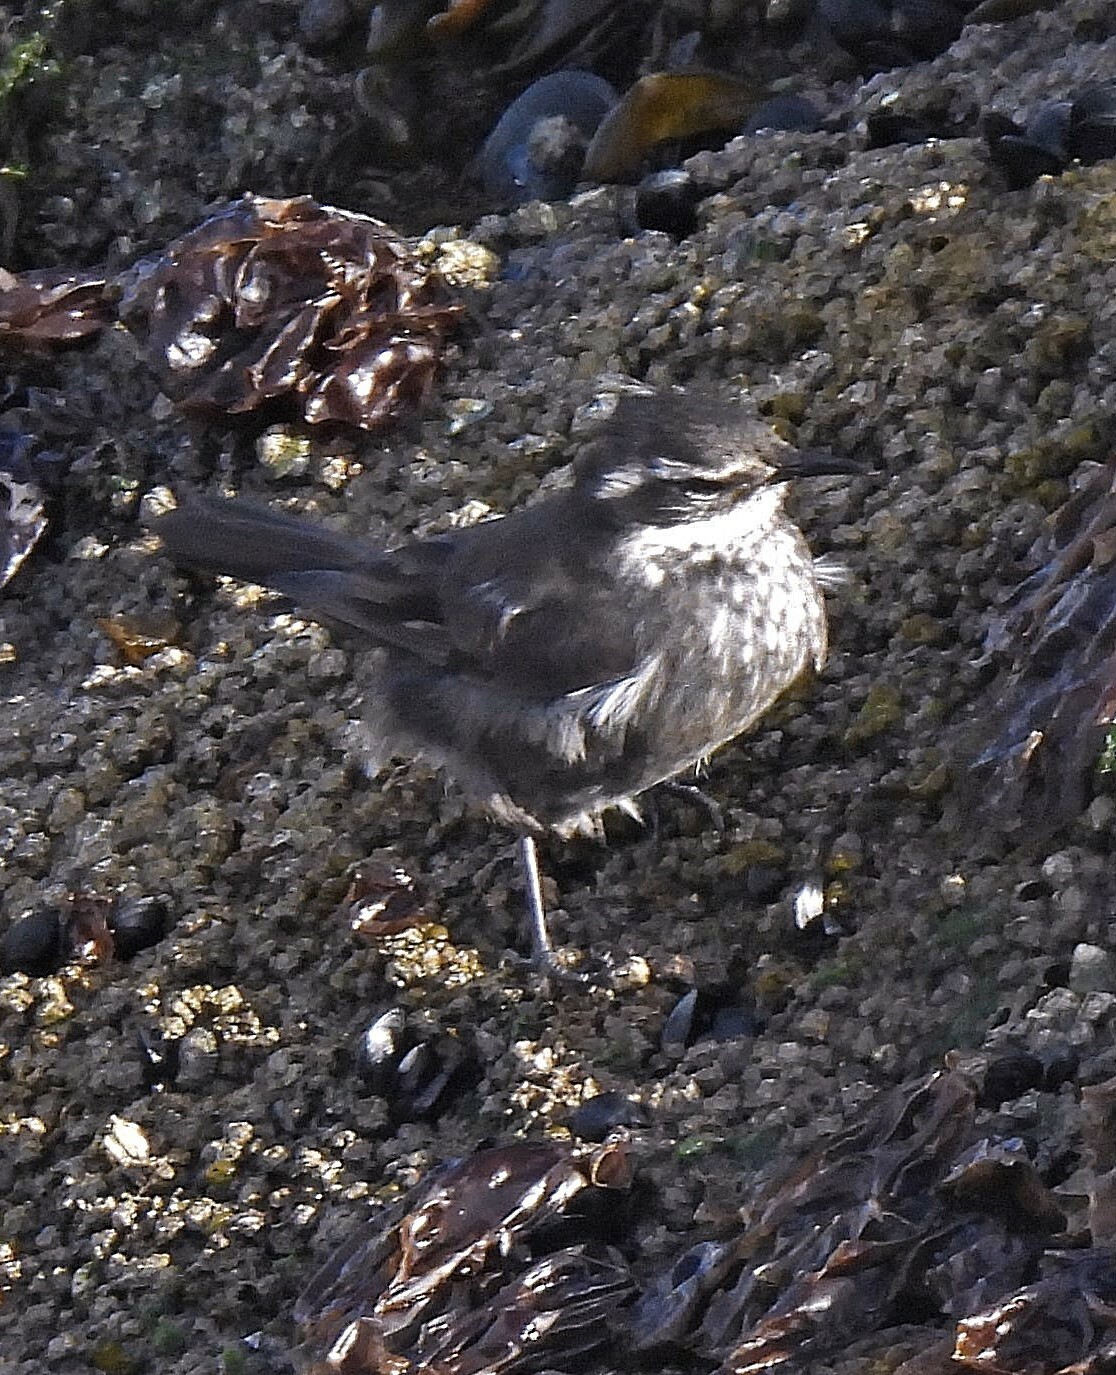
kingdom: Animalia
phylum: Chordata
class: Aves
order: Passeriformes
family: Furnariidae
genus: Cinclodes
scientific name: Cinclodes oustaleti
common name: Grey-flanked cinclodes
